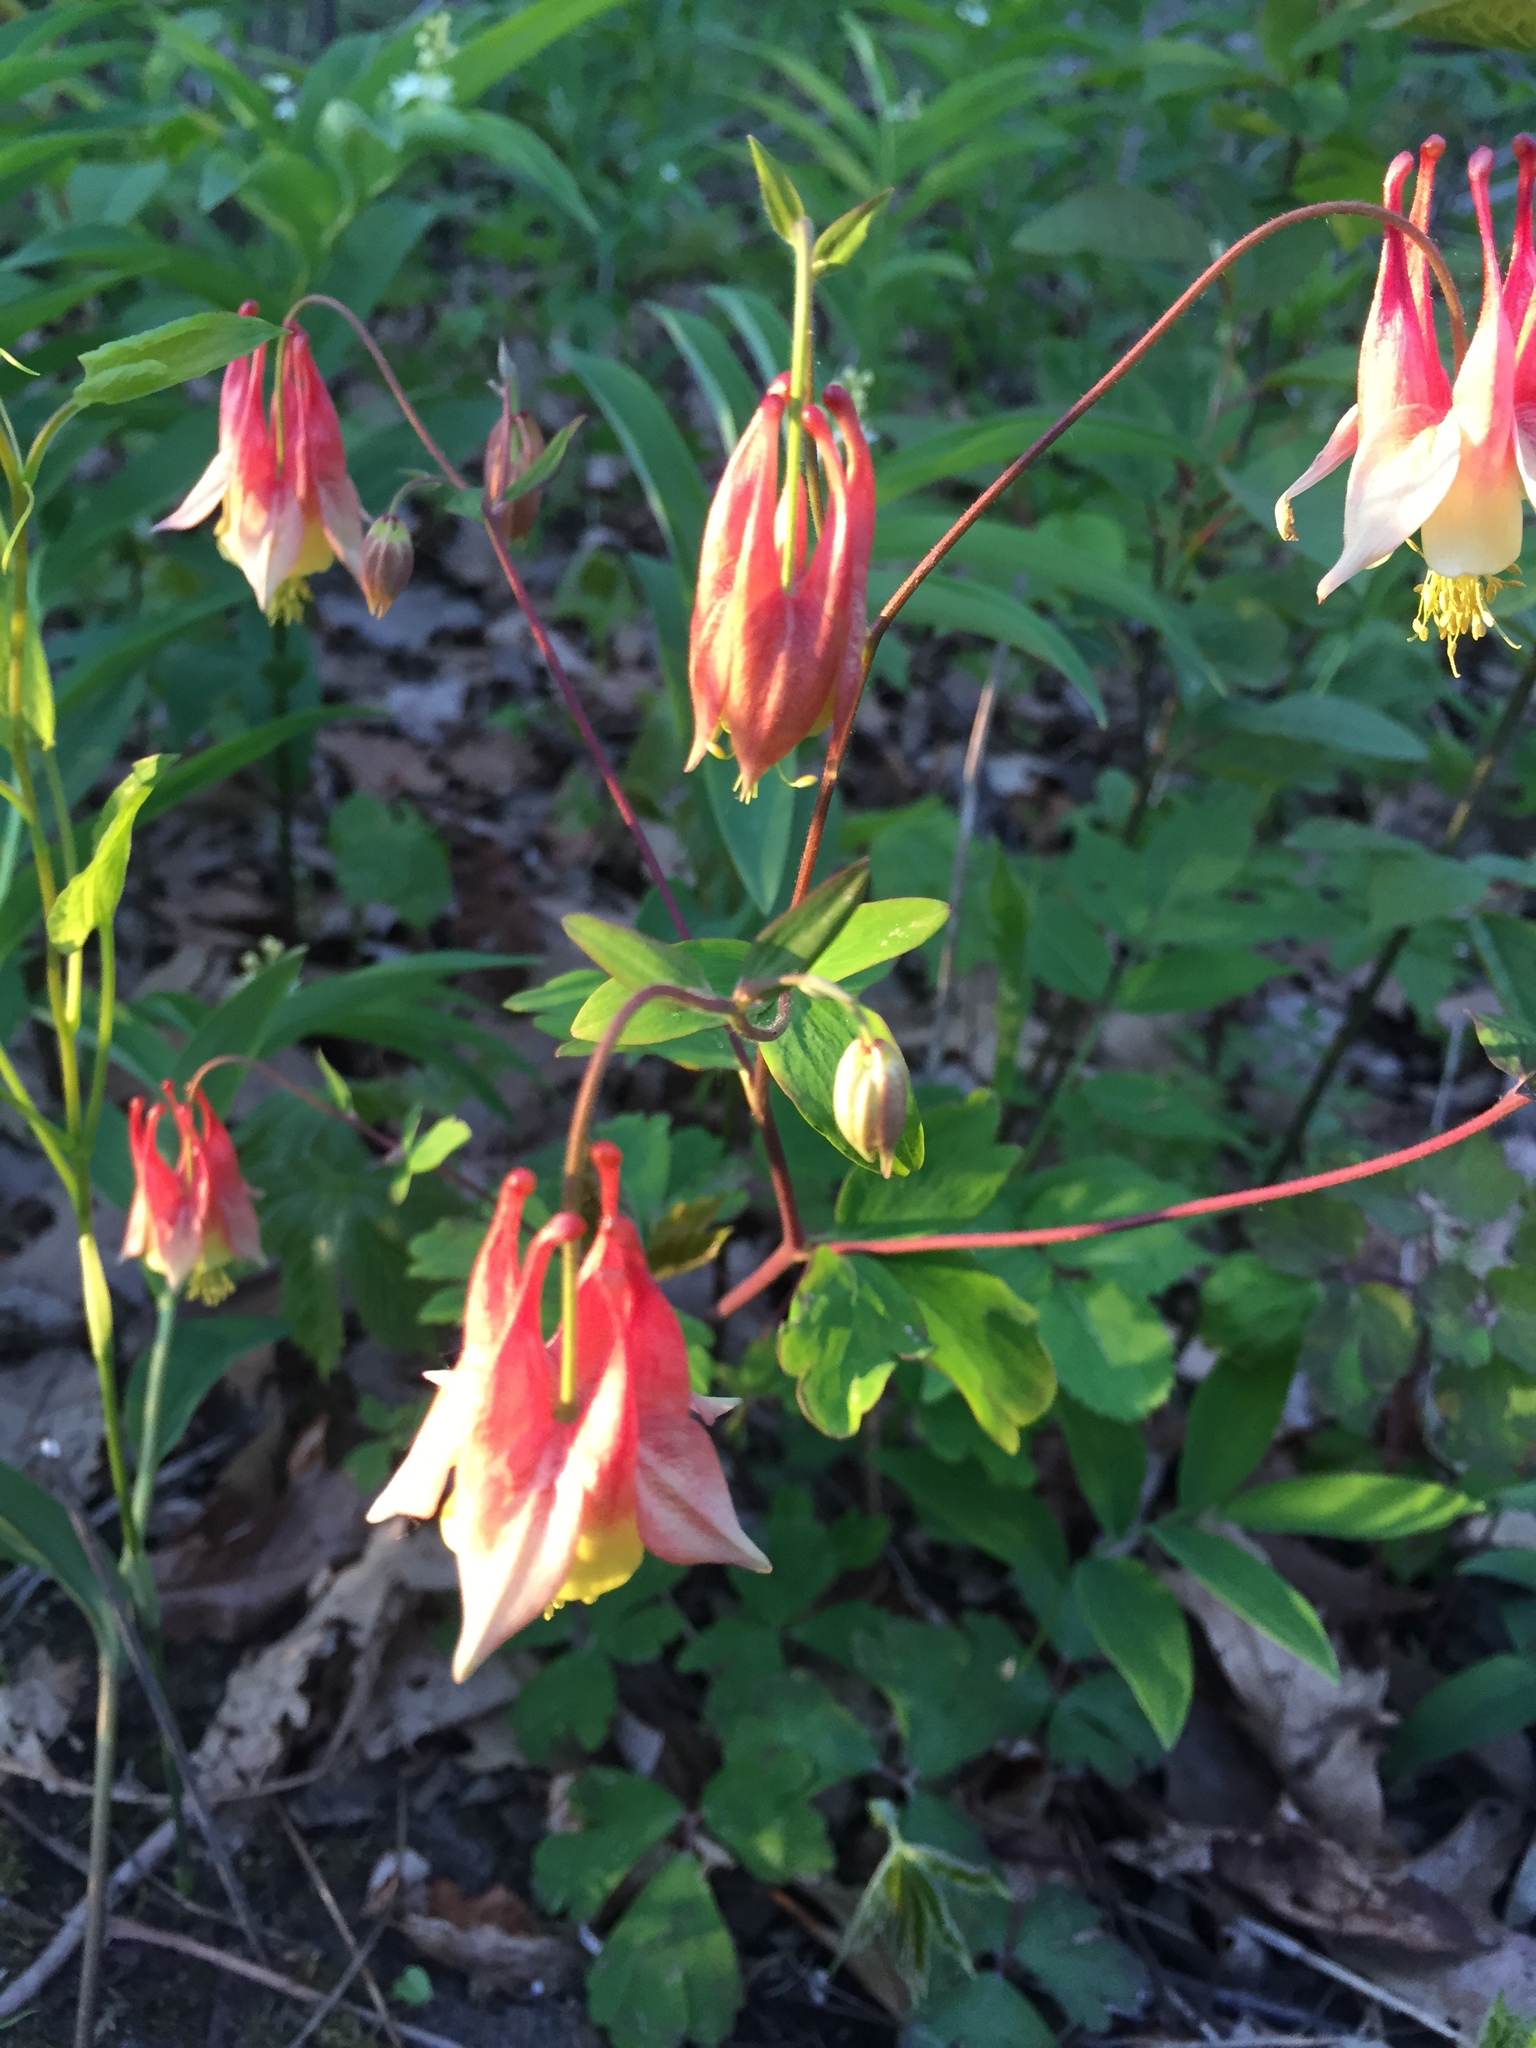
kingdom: Plantae
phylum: Tracheophyta
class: Magnoliopsida
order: Ranunculales
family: Ranunculaceae
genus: Aquilegia
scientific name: Aquilegia canadensis
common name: American columbine
